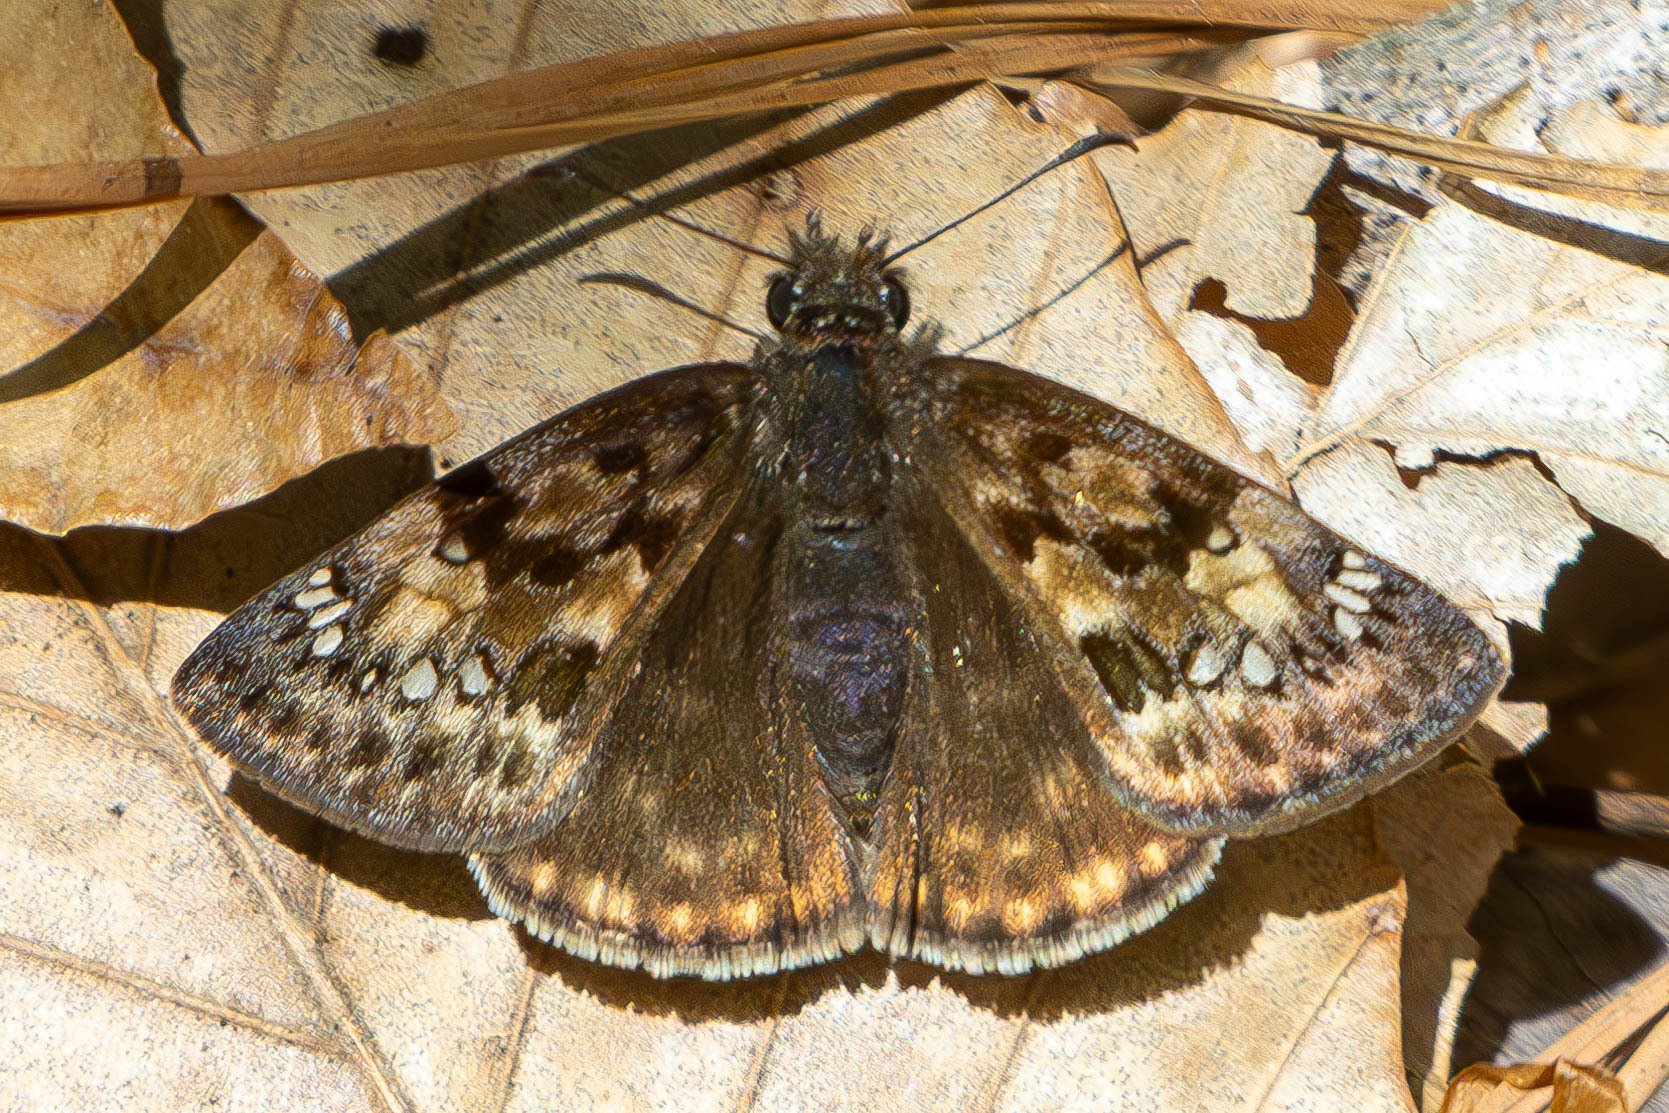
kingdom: Animalia
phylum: Arthropoda
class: Insecta
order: Lepidoptera
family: Hesperiidae
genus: Erynnis
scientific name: Erynnis horatius
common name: Horace's duskywing
